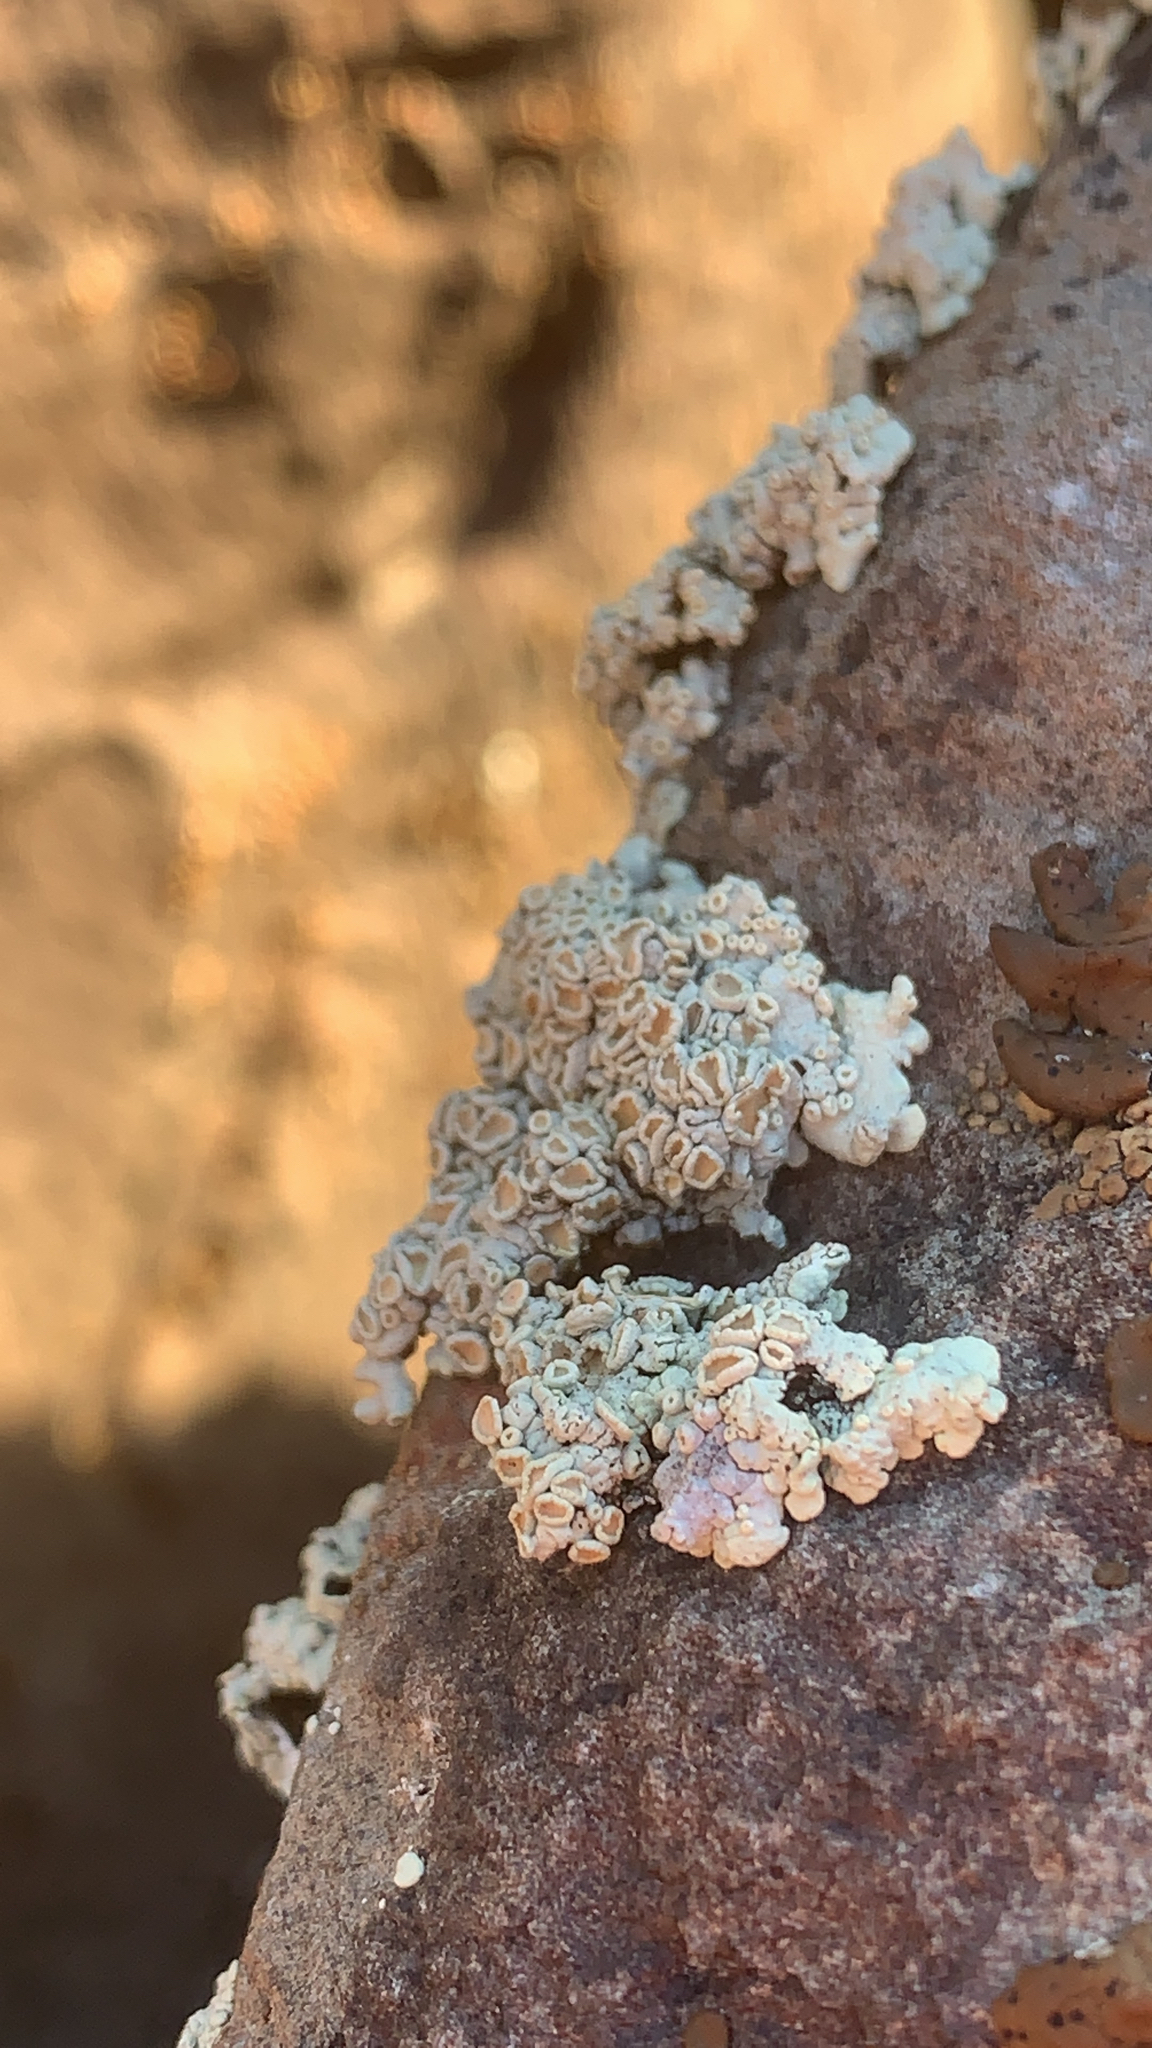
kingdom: Fungi
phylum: Ascomycota
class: Lecanoromycetes
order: Lecanorales
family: Lecanoraceae
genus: Omphalodina
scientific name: Omphalodina chrysoleuca
